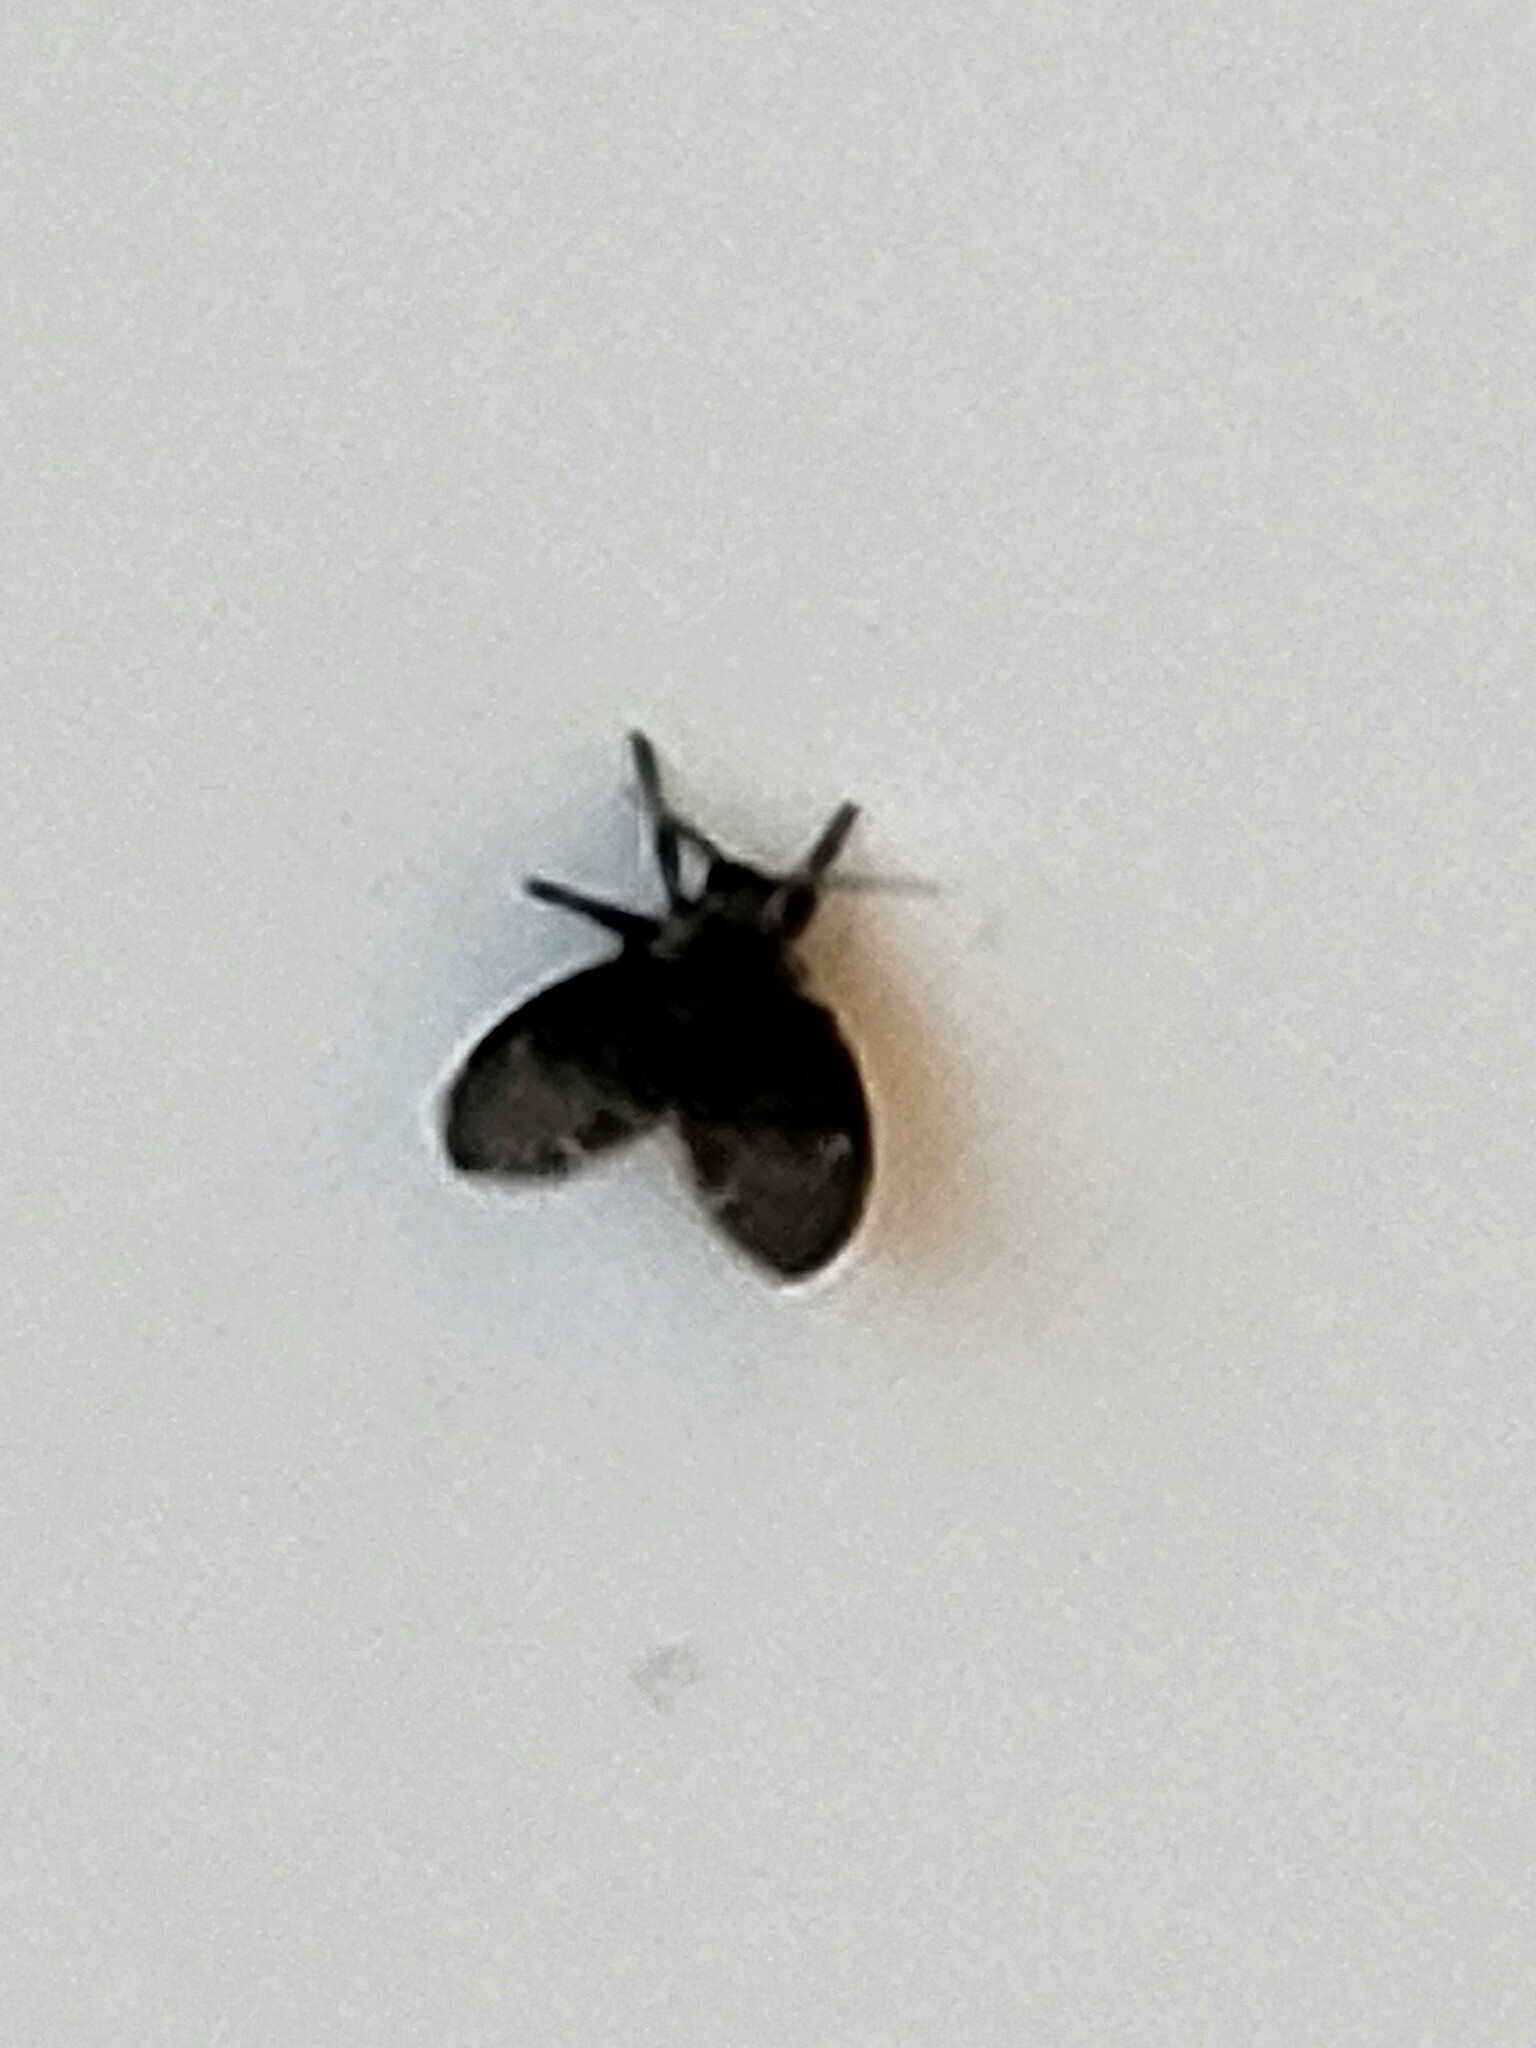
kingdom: Animalia
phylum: Arthropoda
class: Insecta
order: Diptera
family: Psychodidae
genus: Clogmia
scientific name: Clogmia albipunctatus
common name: White-spotted moth fly
